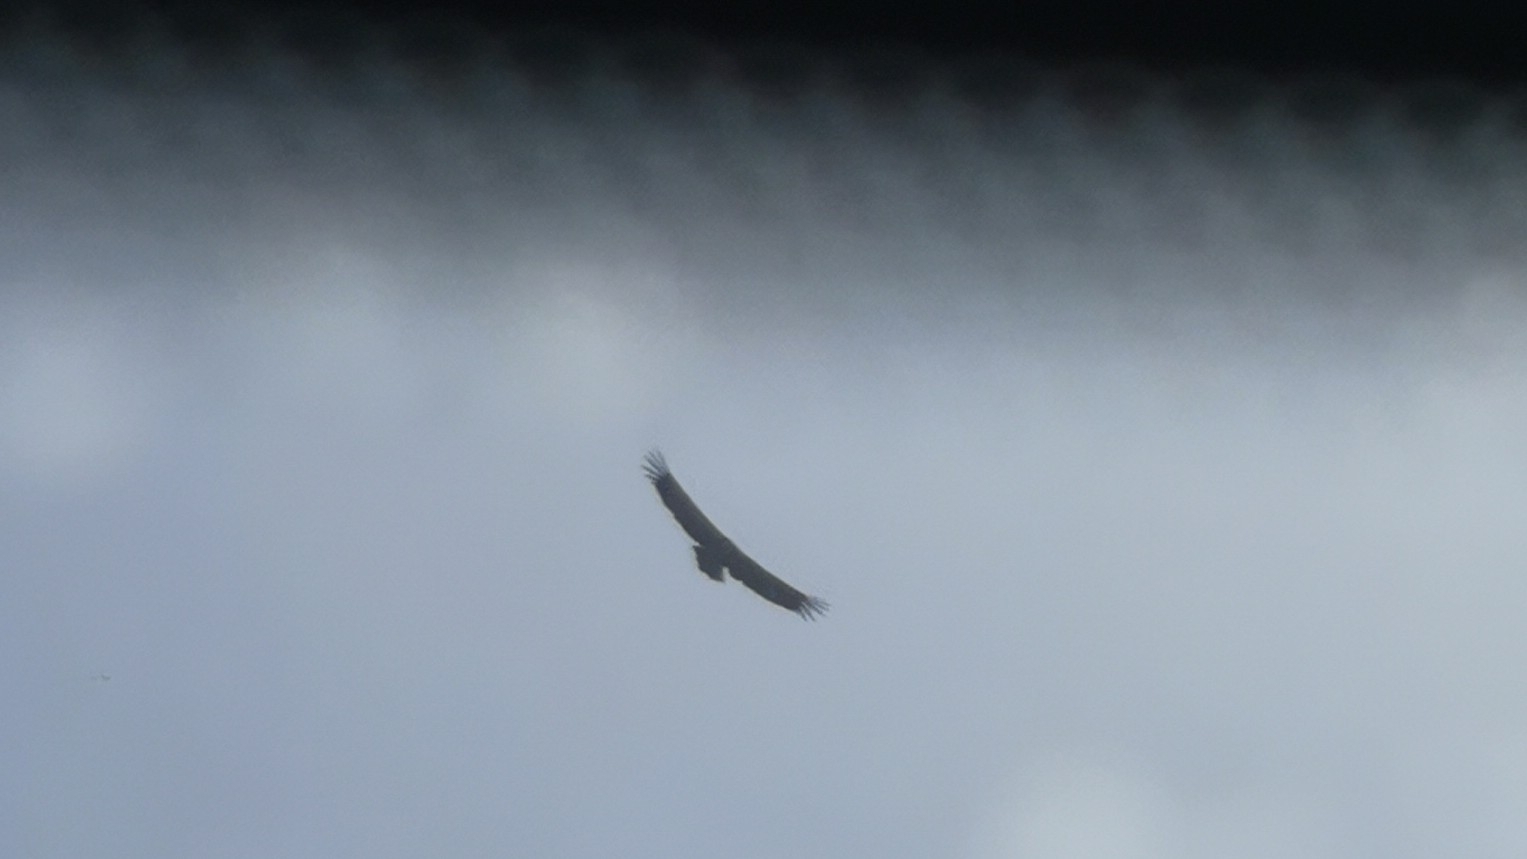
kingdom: Animalia
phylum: Chordata
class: Aves
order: Accipitriformes
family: Accipitridae
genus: Gyps
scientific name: Gyps fulvus
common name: Griffon vulture
